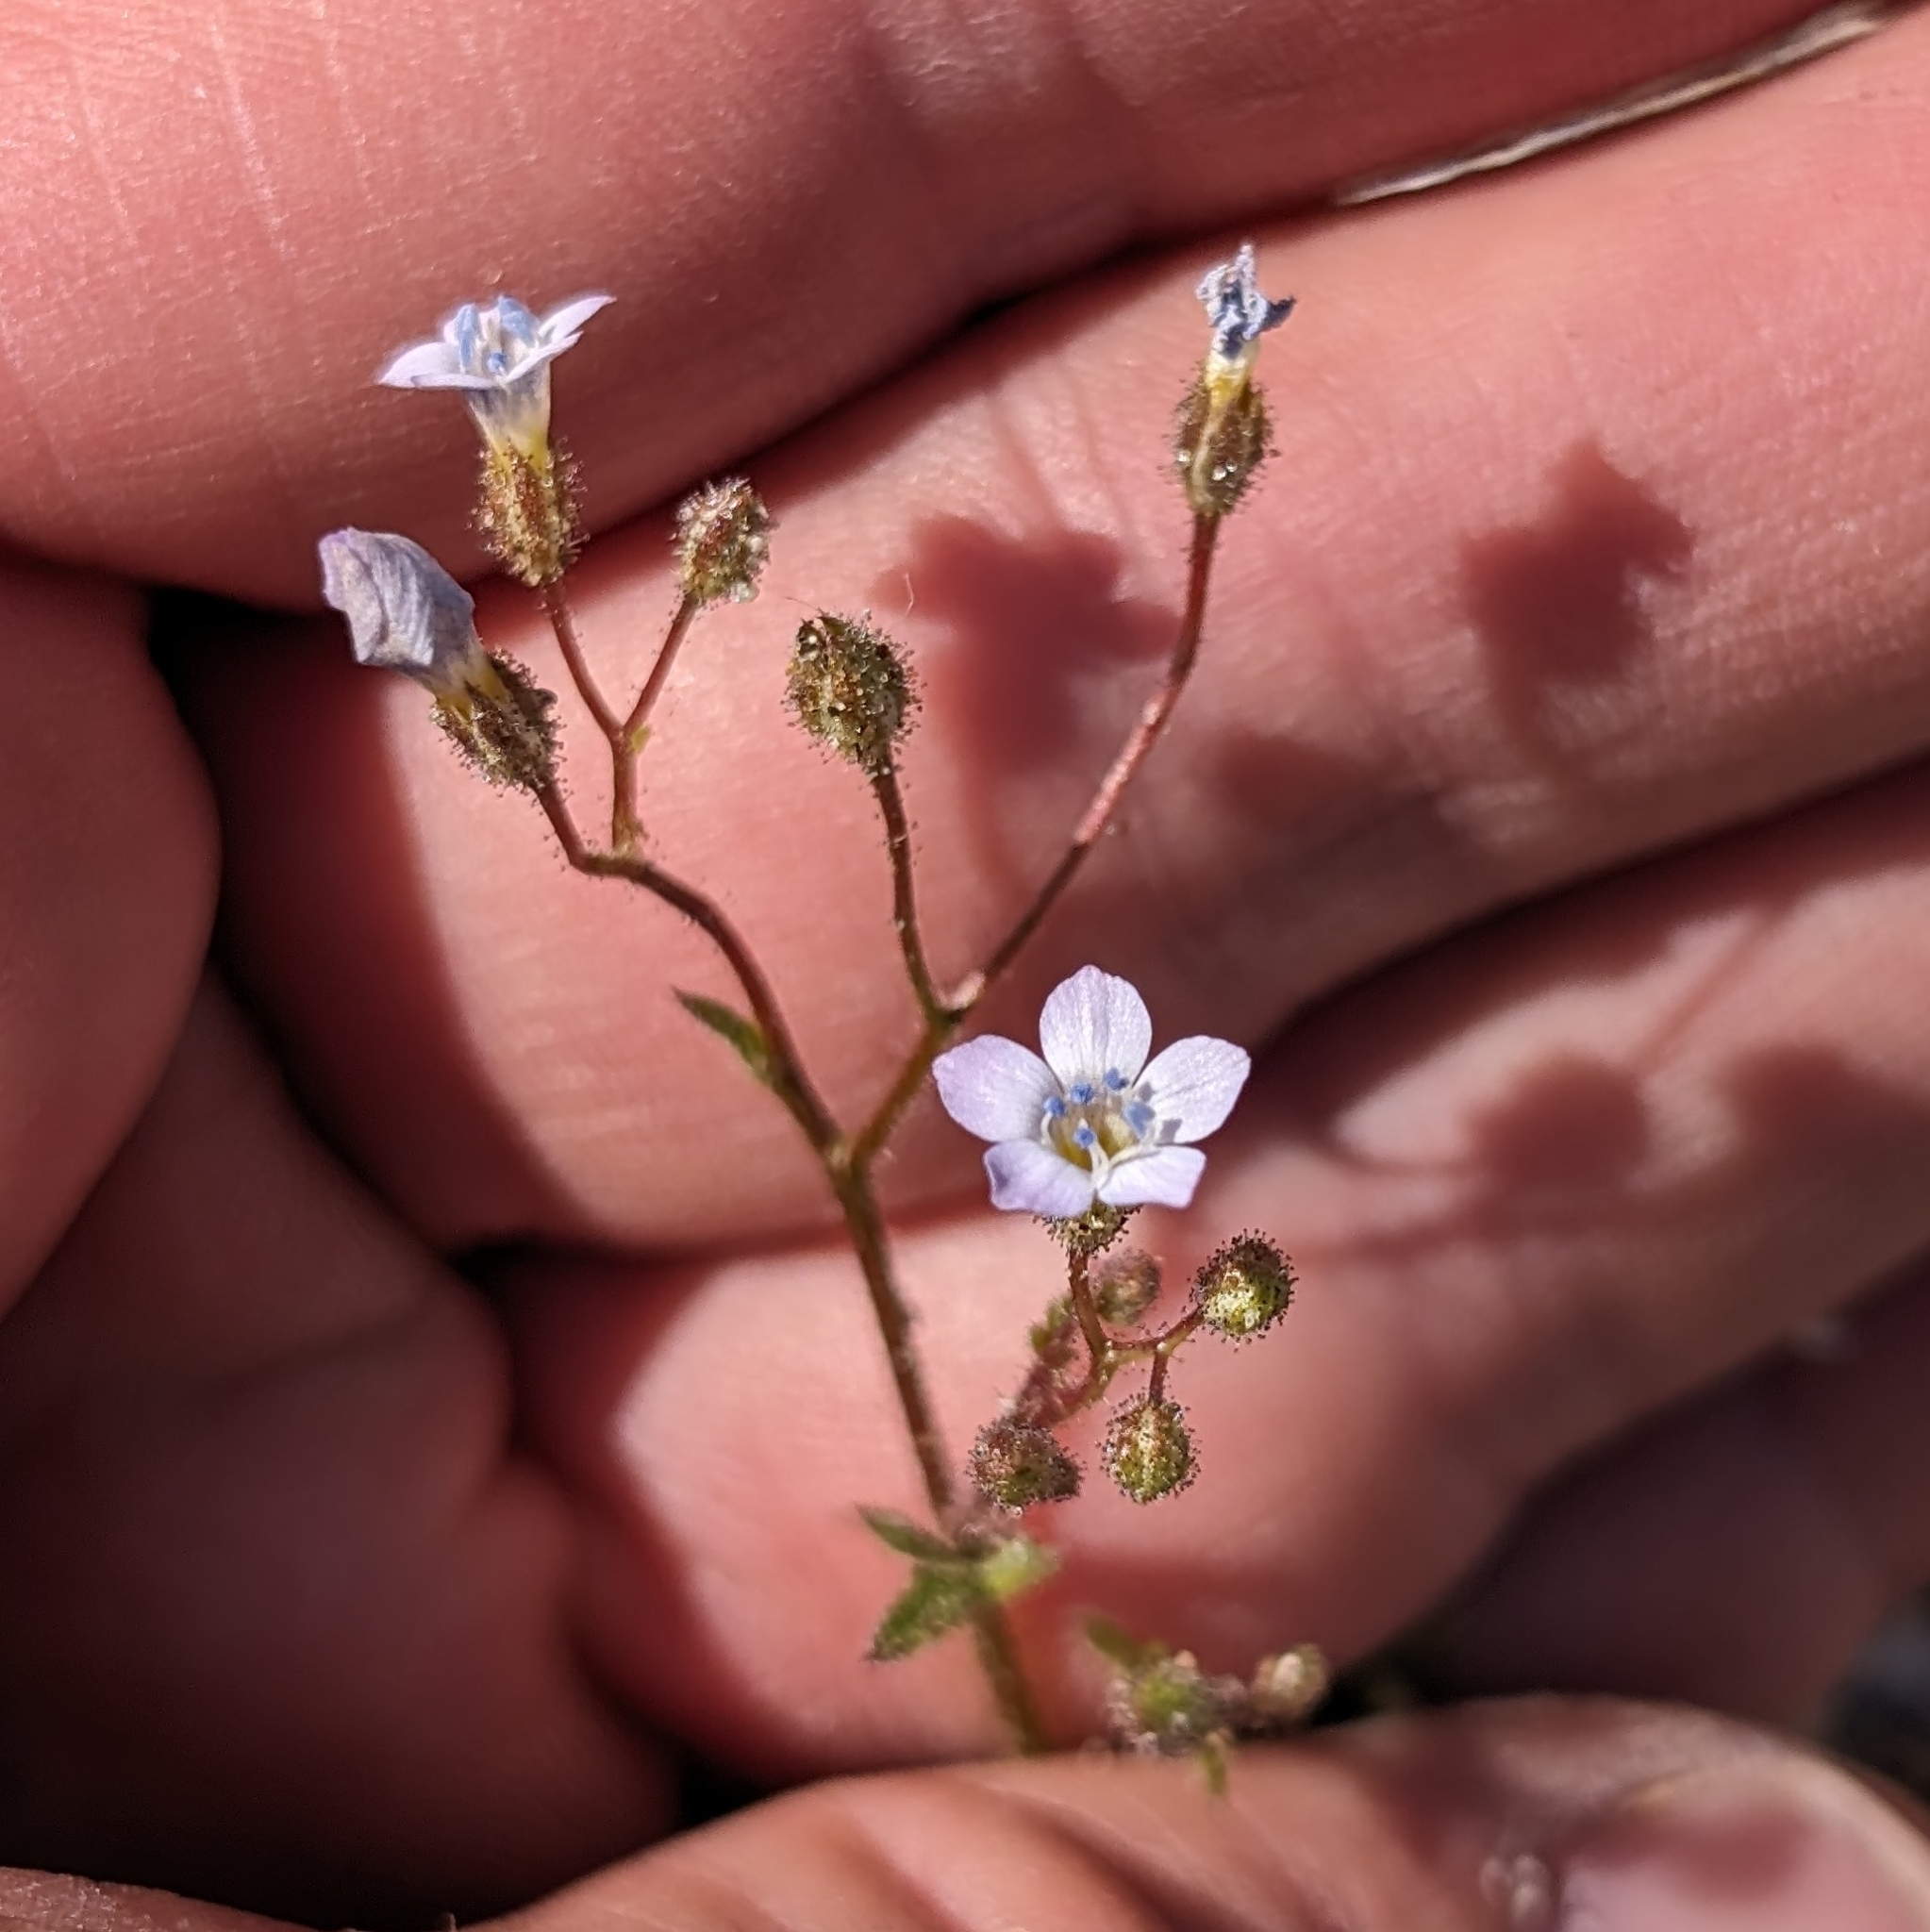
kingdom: Plantae
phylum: Tracheophyta
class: Magnoliopsida
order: Ericales
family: Polemoniaceae
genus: Gilia
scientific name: Gilia stellata
